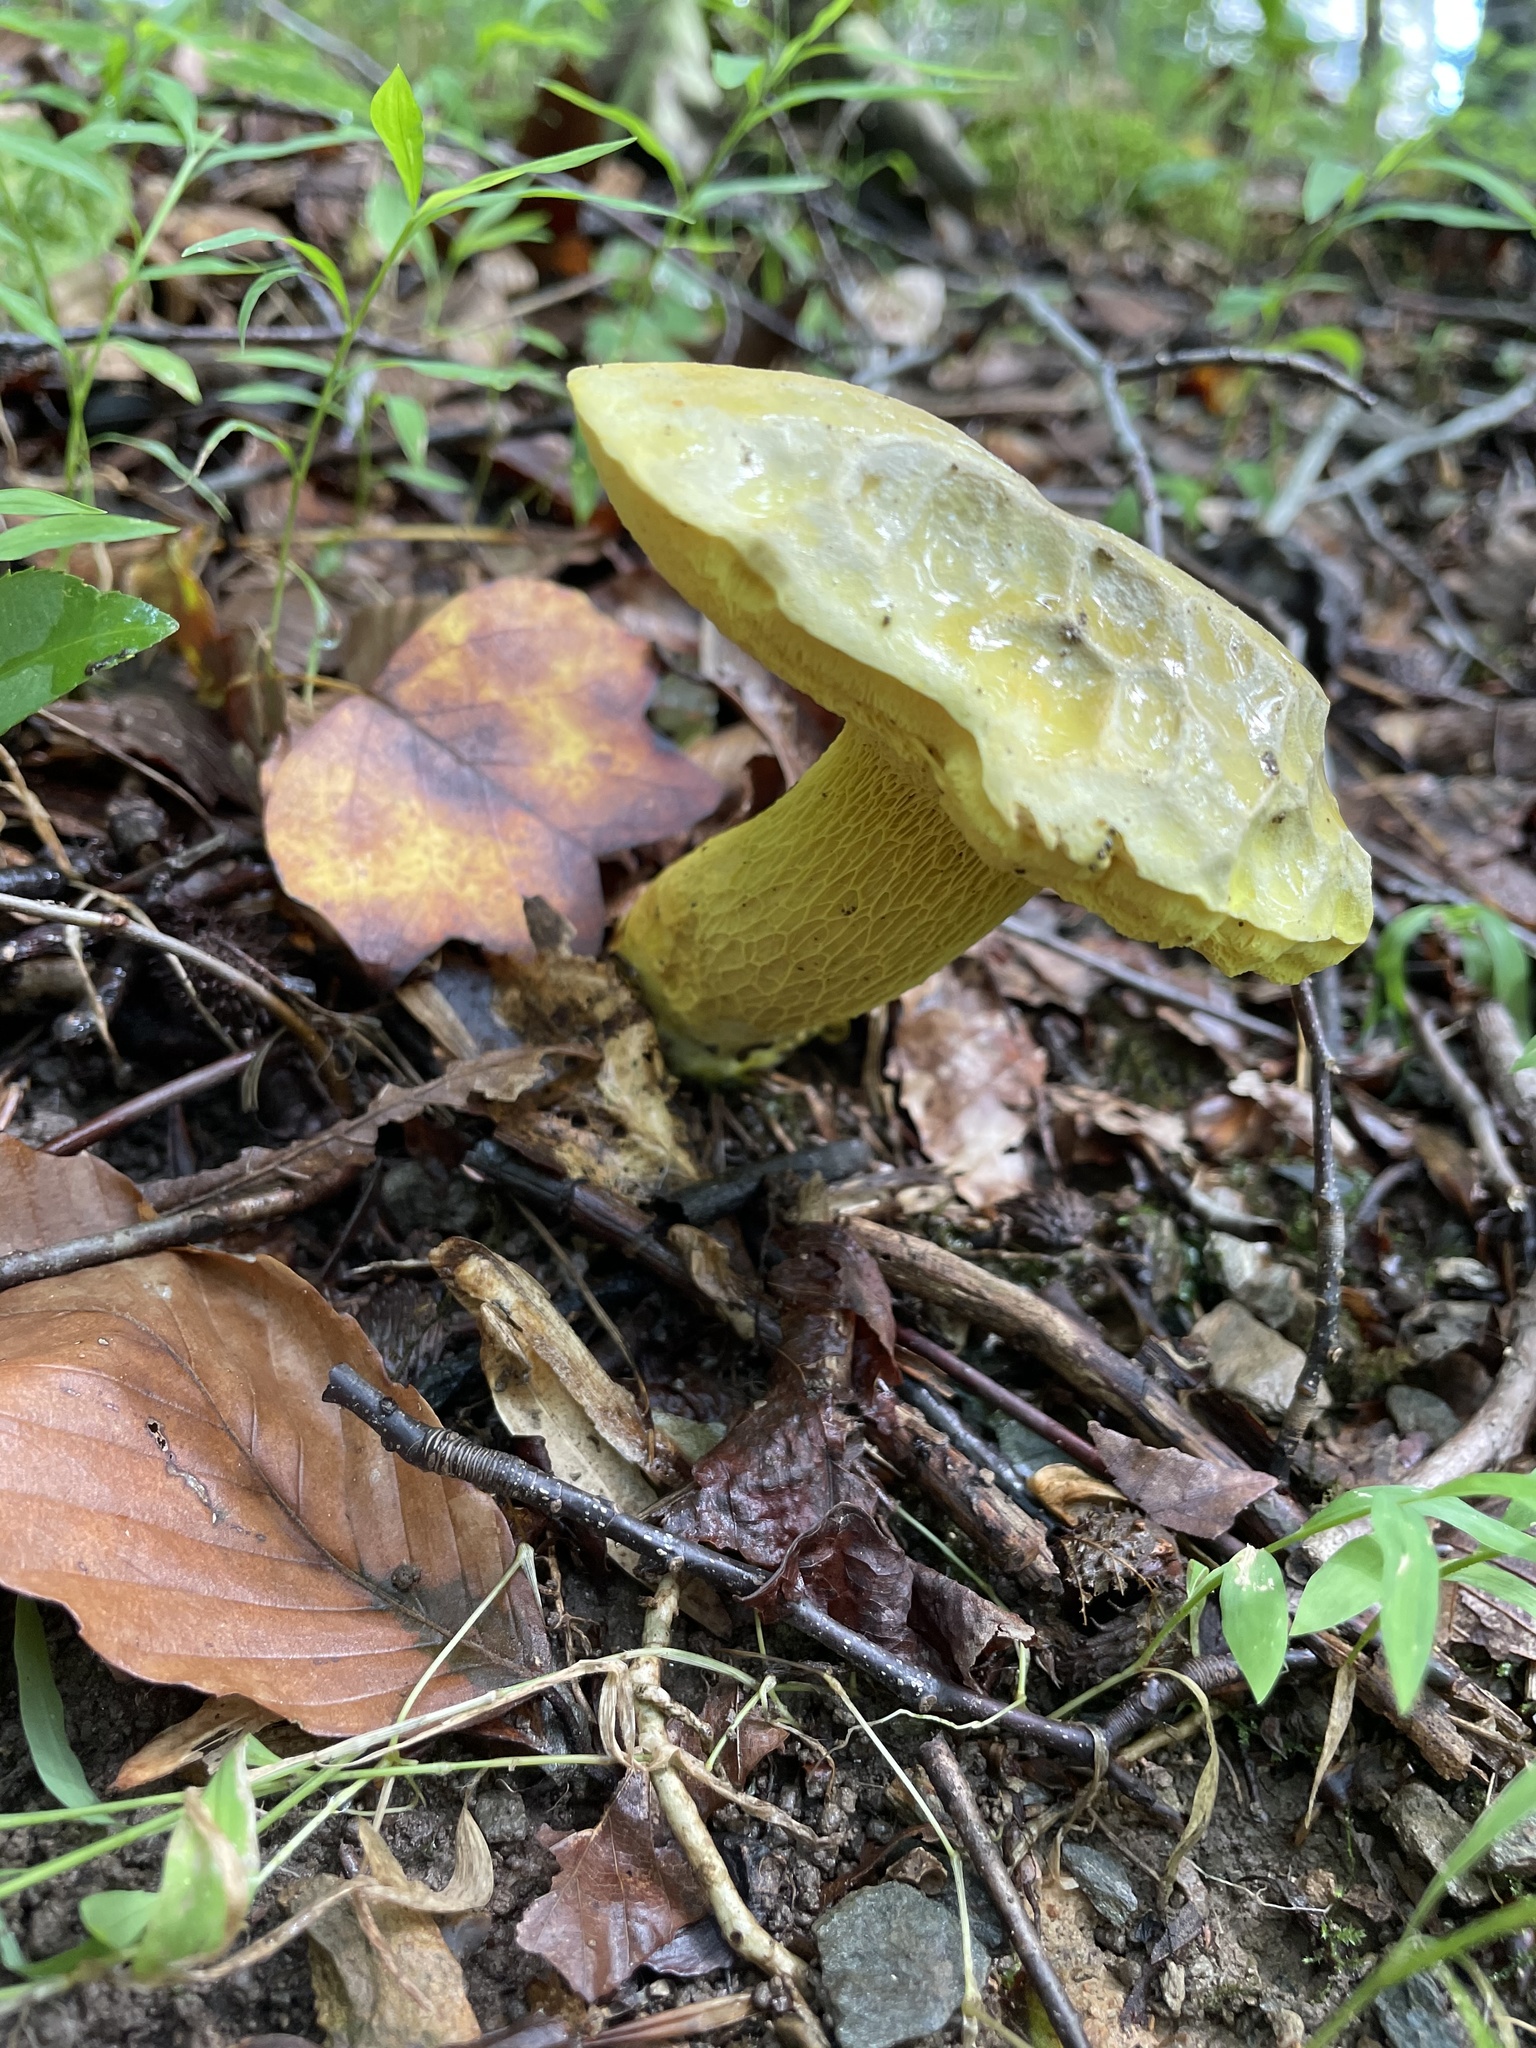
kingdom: Fungi
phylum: Basidiomycota
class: Agaricomycetes
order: Boletales
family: Boletaceae
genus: Retiboletus
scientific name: Retiboletus ornatipes
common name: Ornate-stalked bolete
